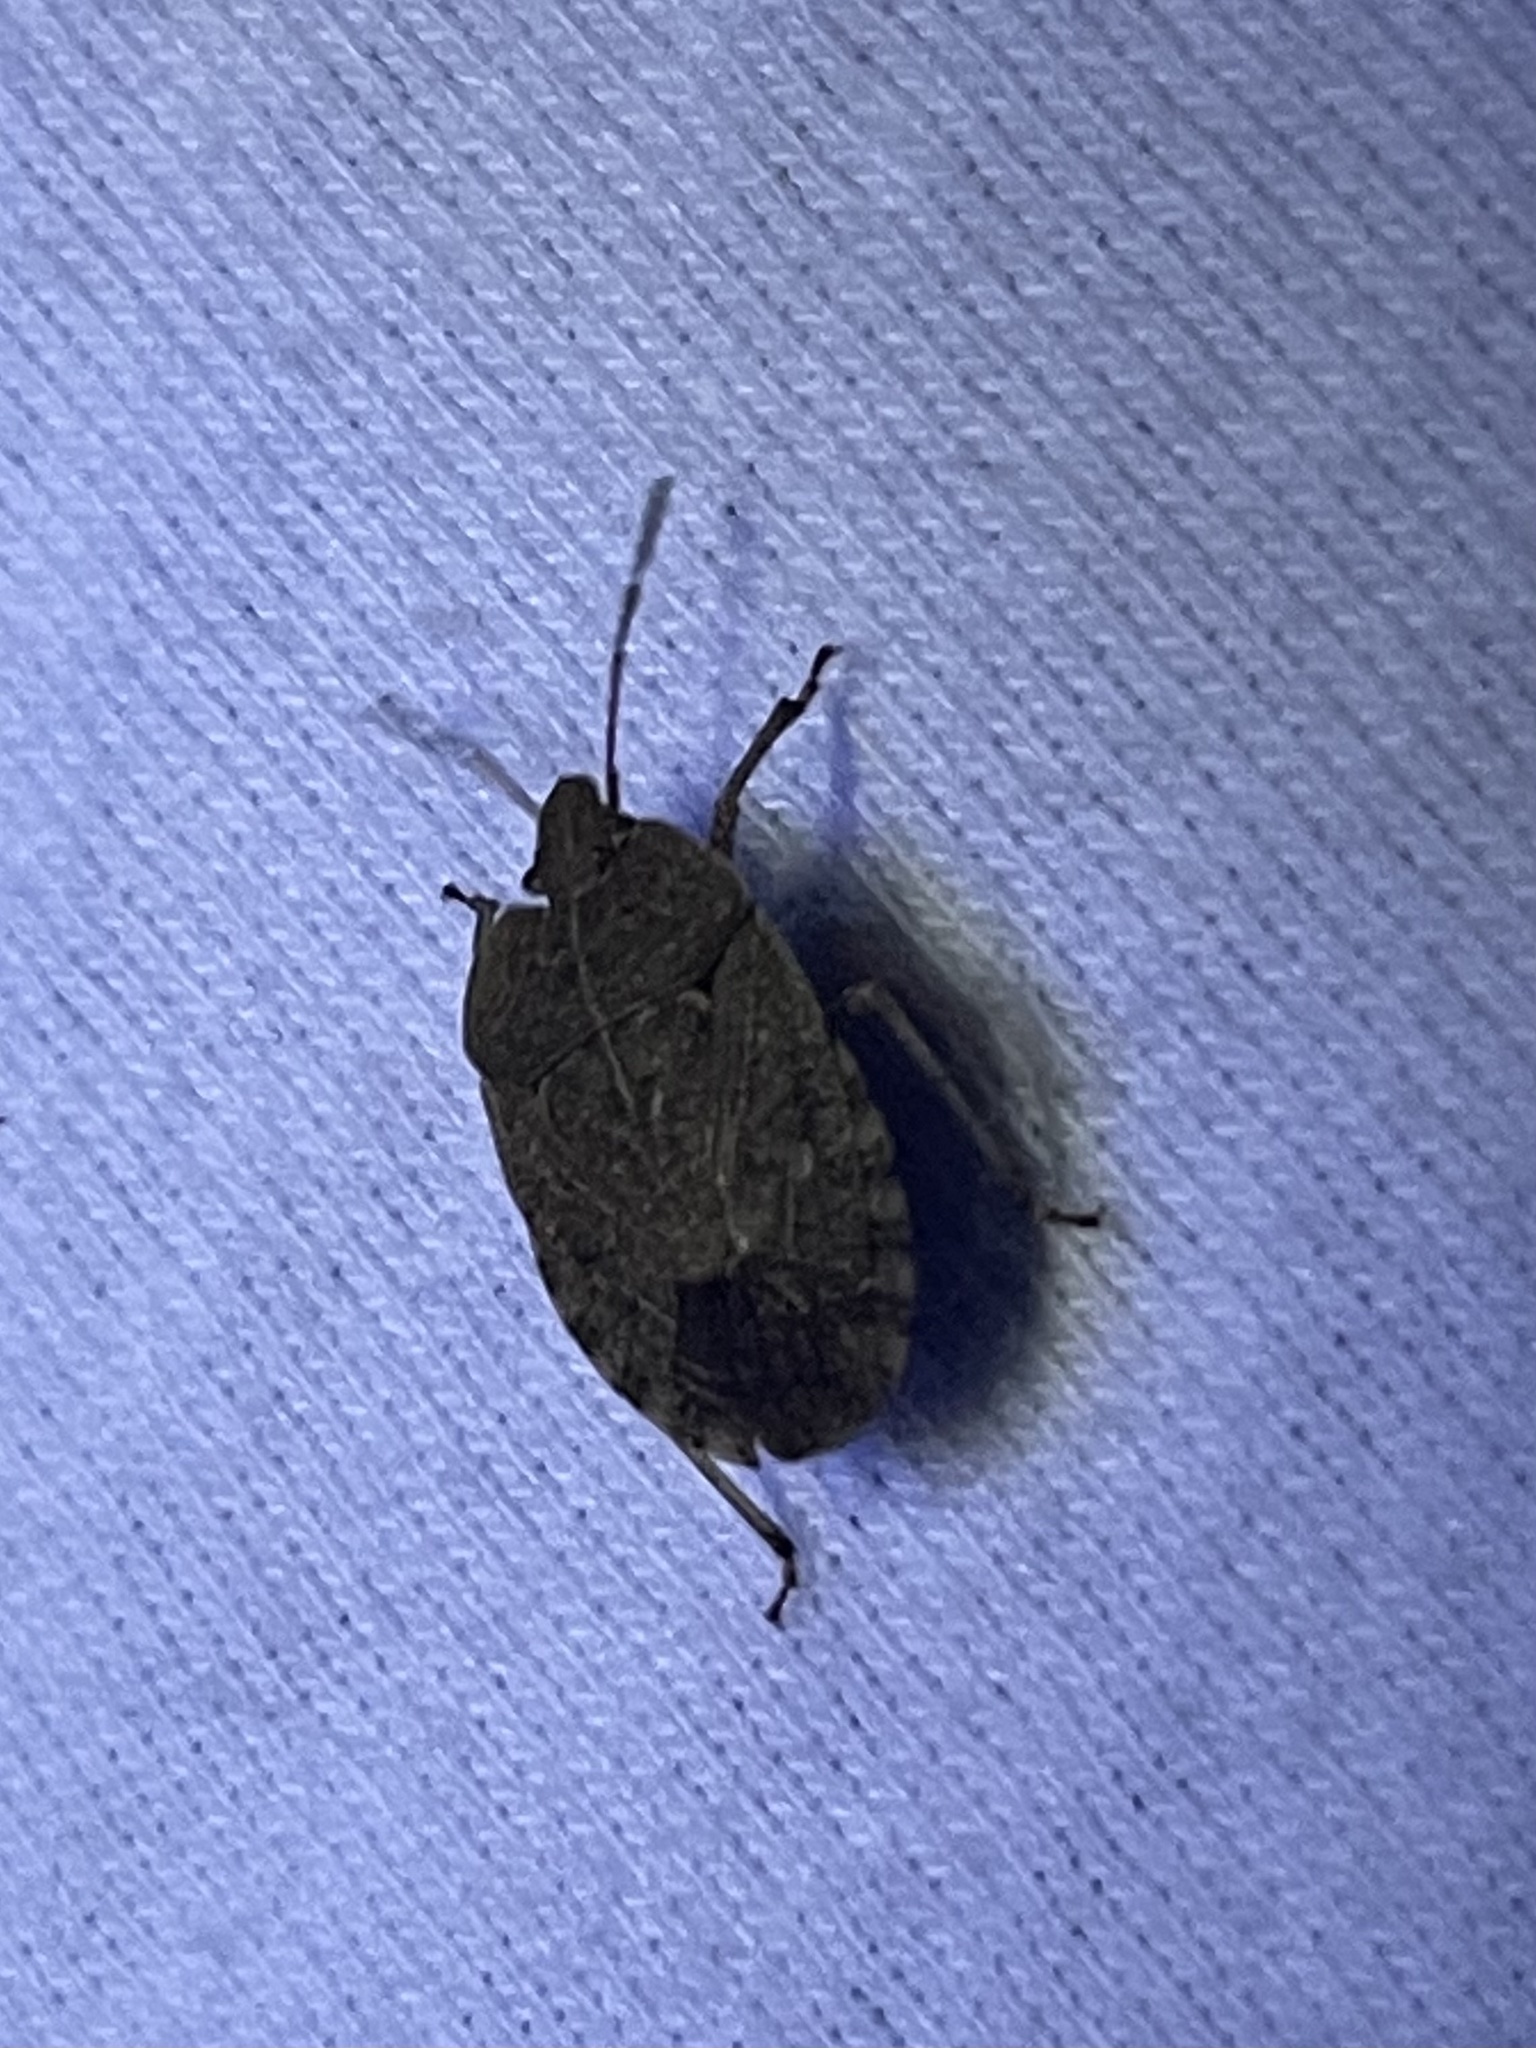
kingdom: Animalia
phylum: Arthropoda
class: Insecta
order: Hemiptera
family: Pentatomidae
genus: Menecles
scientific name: Menecles insertus
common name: Elf shoe stink bug
